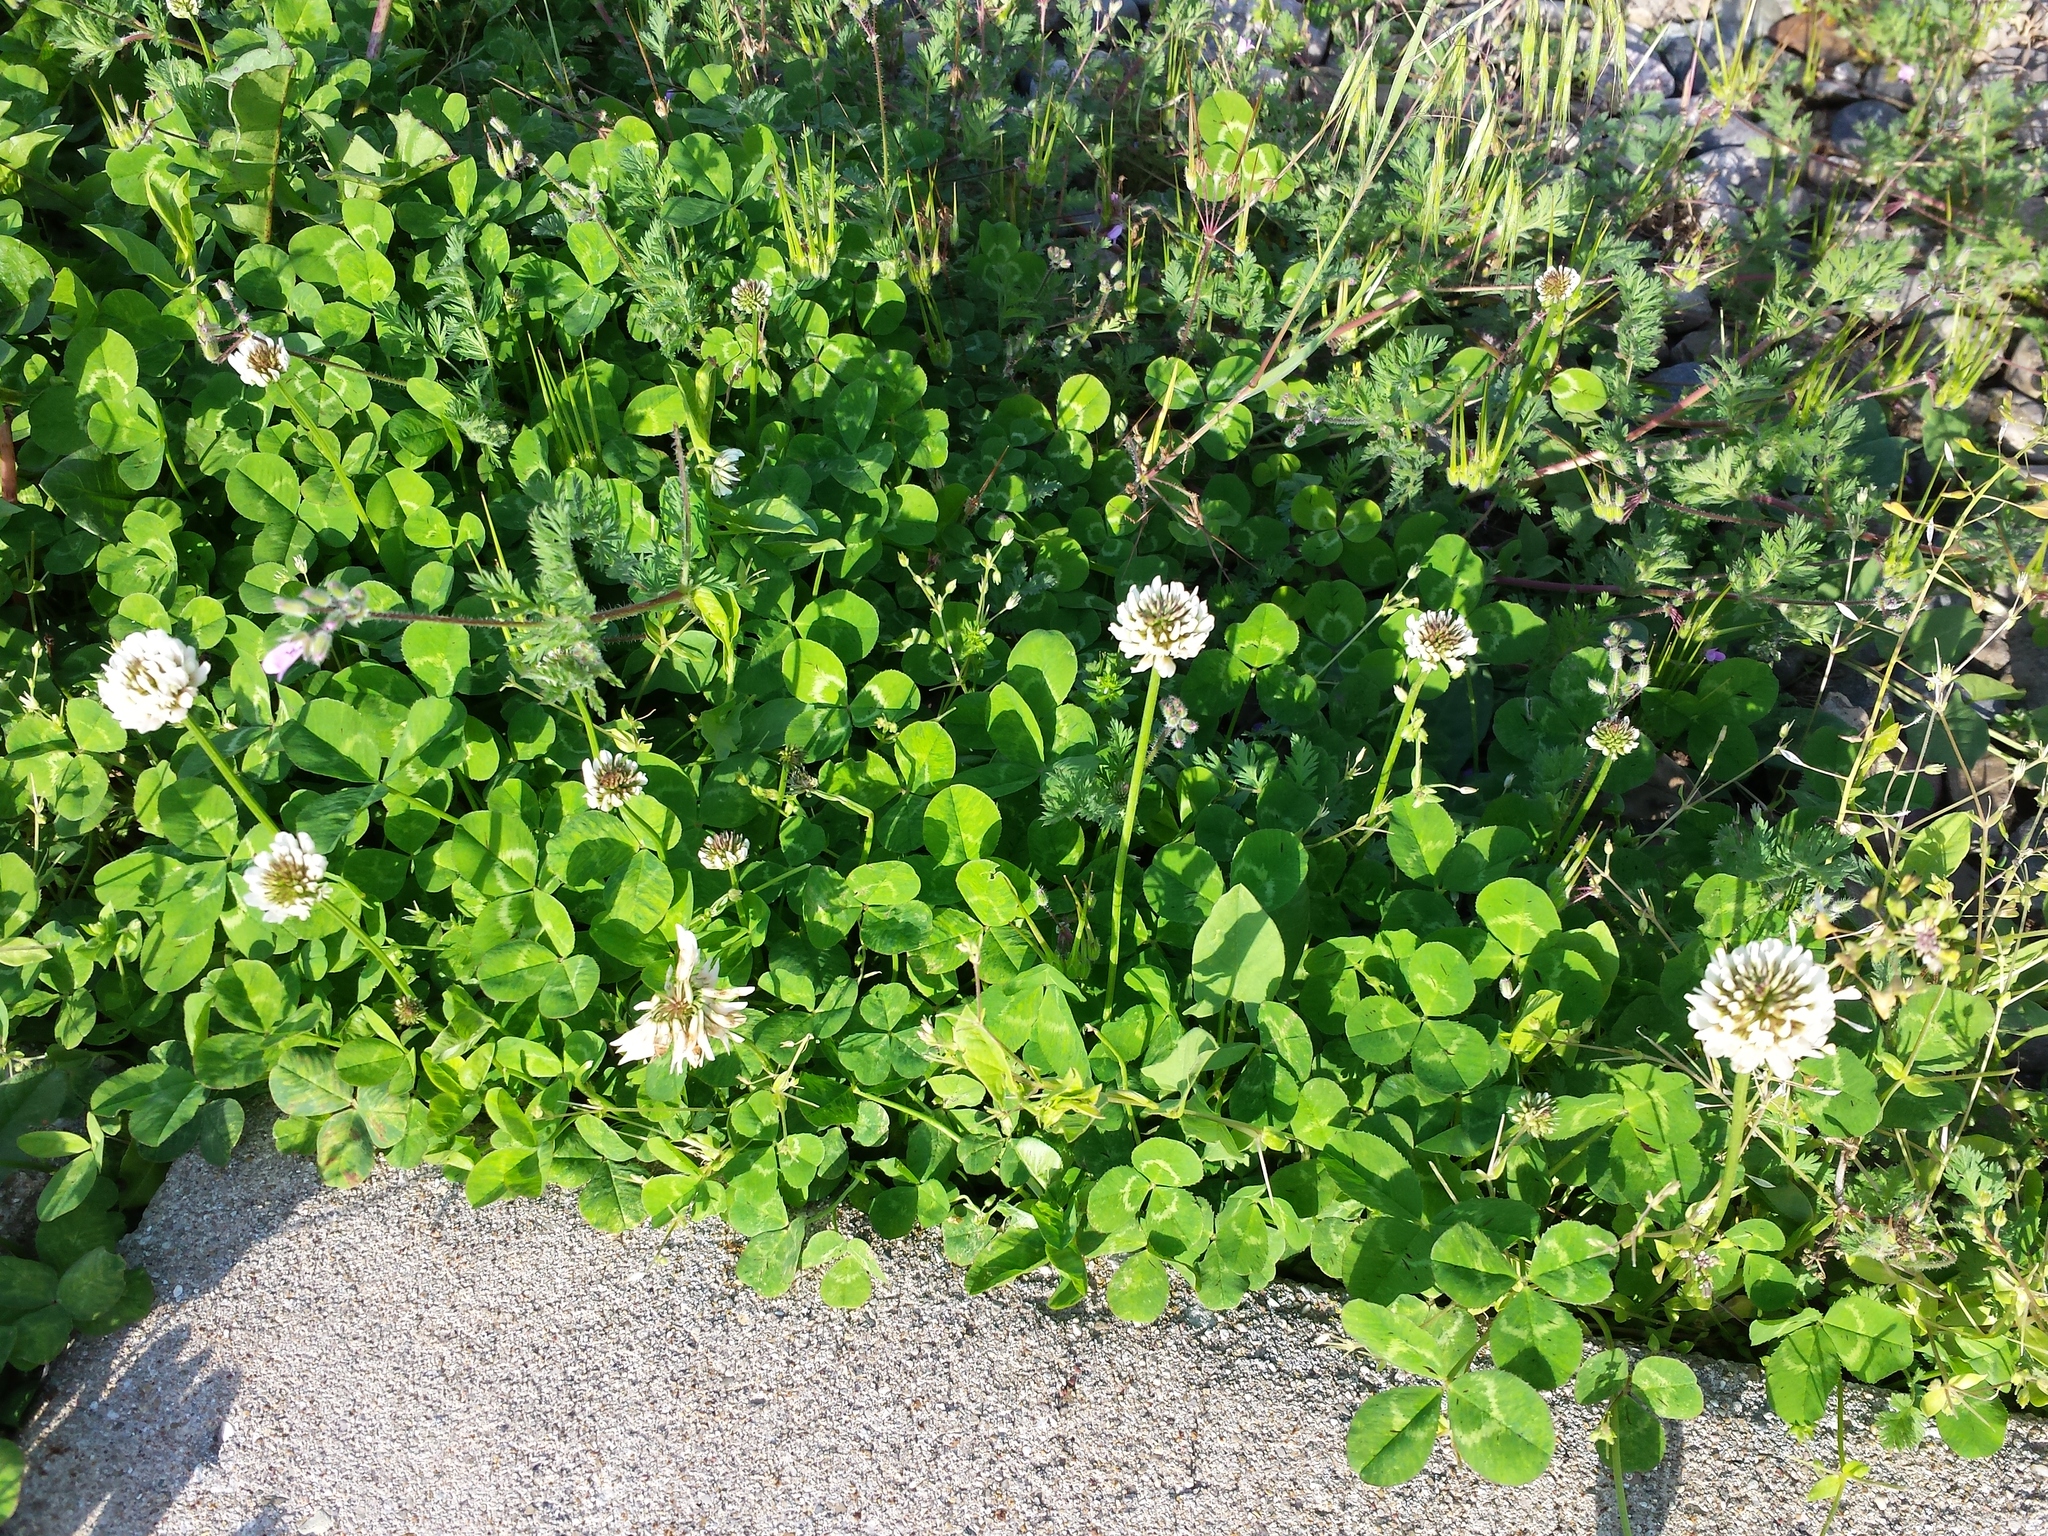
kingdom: Plantae
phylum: Tracheophyta
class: Magnoliopsida
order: Fabales
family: Fabaceae
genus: Trifolium
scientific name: Trifolium repens
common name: White clover
